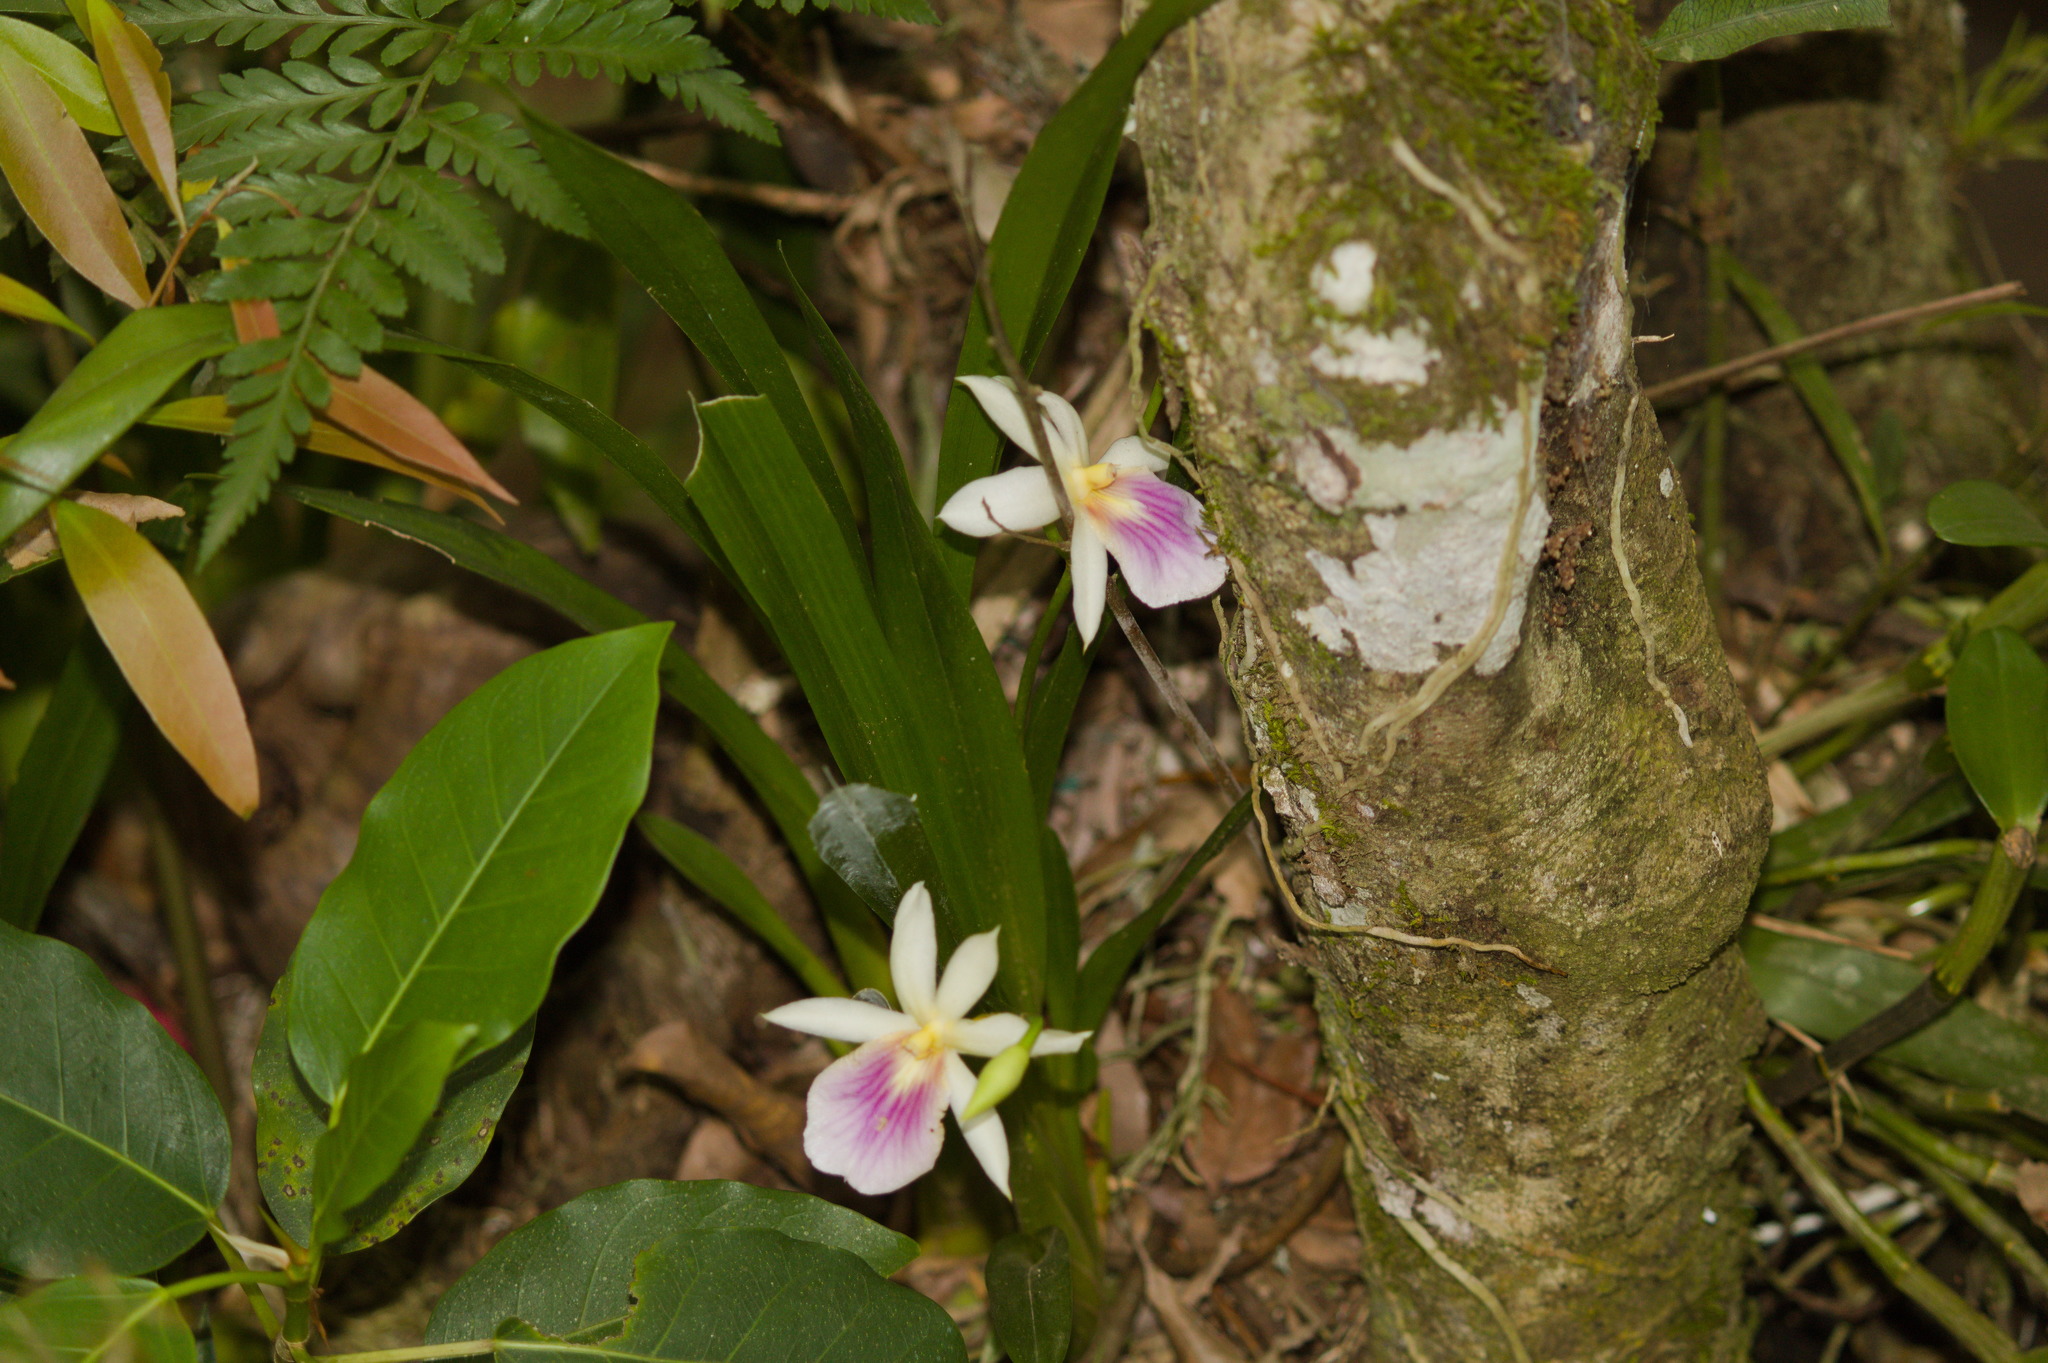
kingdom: Plantae
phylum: Tracheophyta
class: Liliopsida
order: Asparagales
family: Orchidaceae
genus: Miltonia
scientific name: Miltonia regnellii
